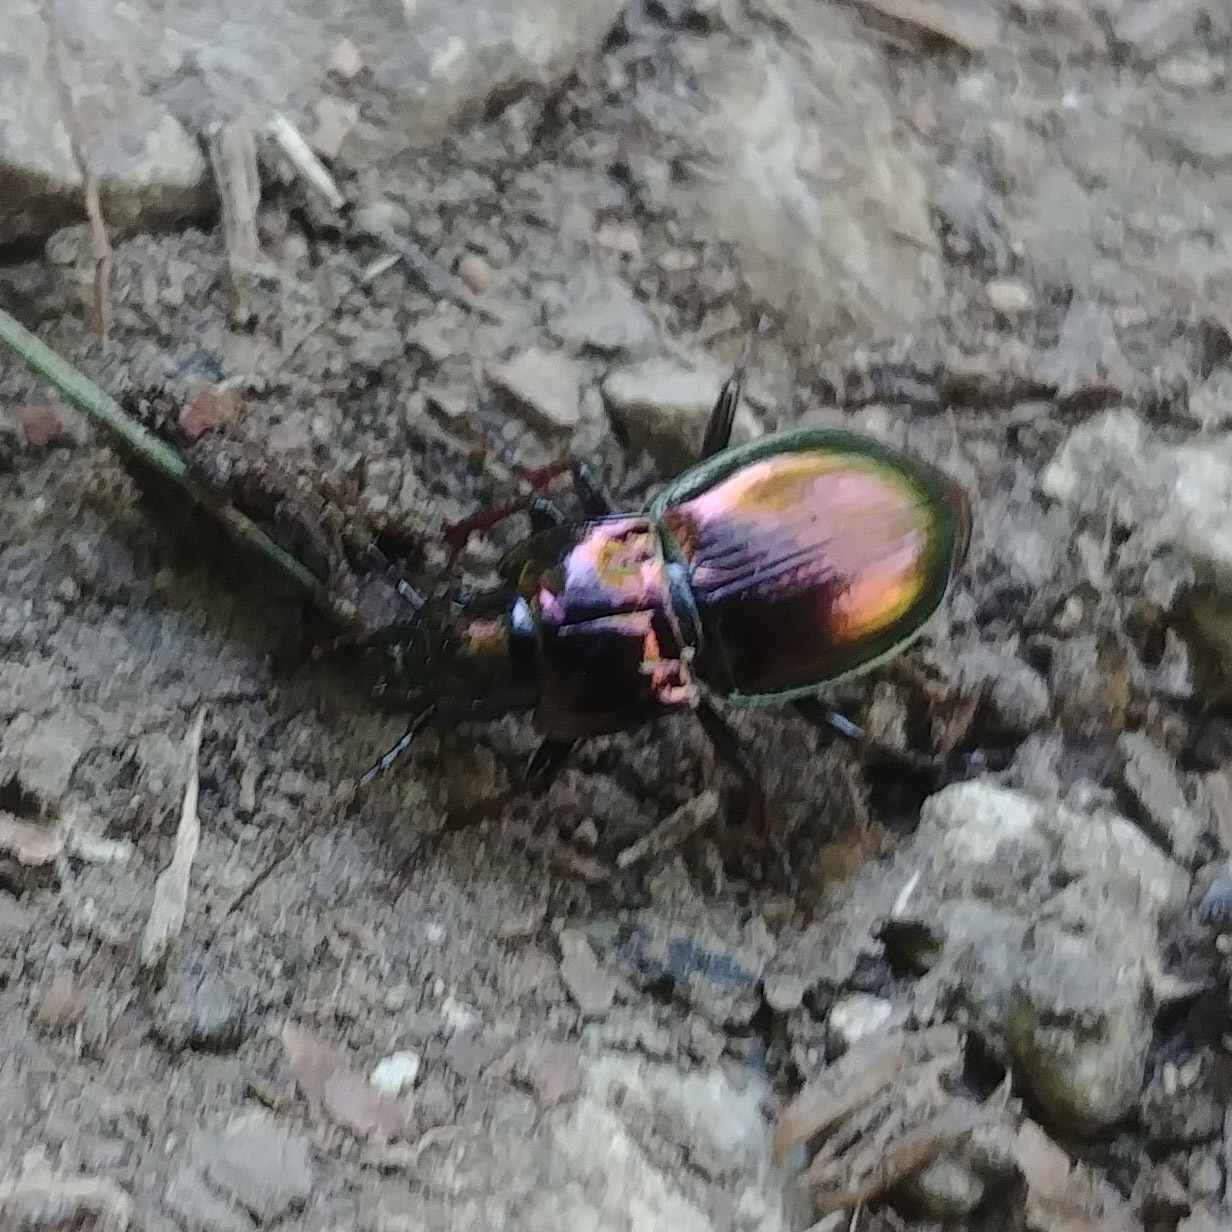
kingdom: Animalia
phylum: Arthropoda
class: Insecta
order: Coleoptera
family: Carabidae
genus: Pterostichus
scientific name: Pterostichus burmeisteri
